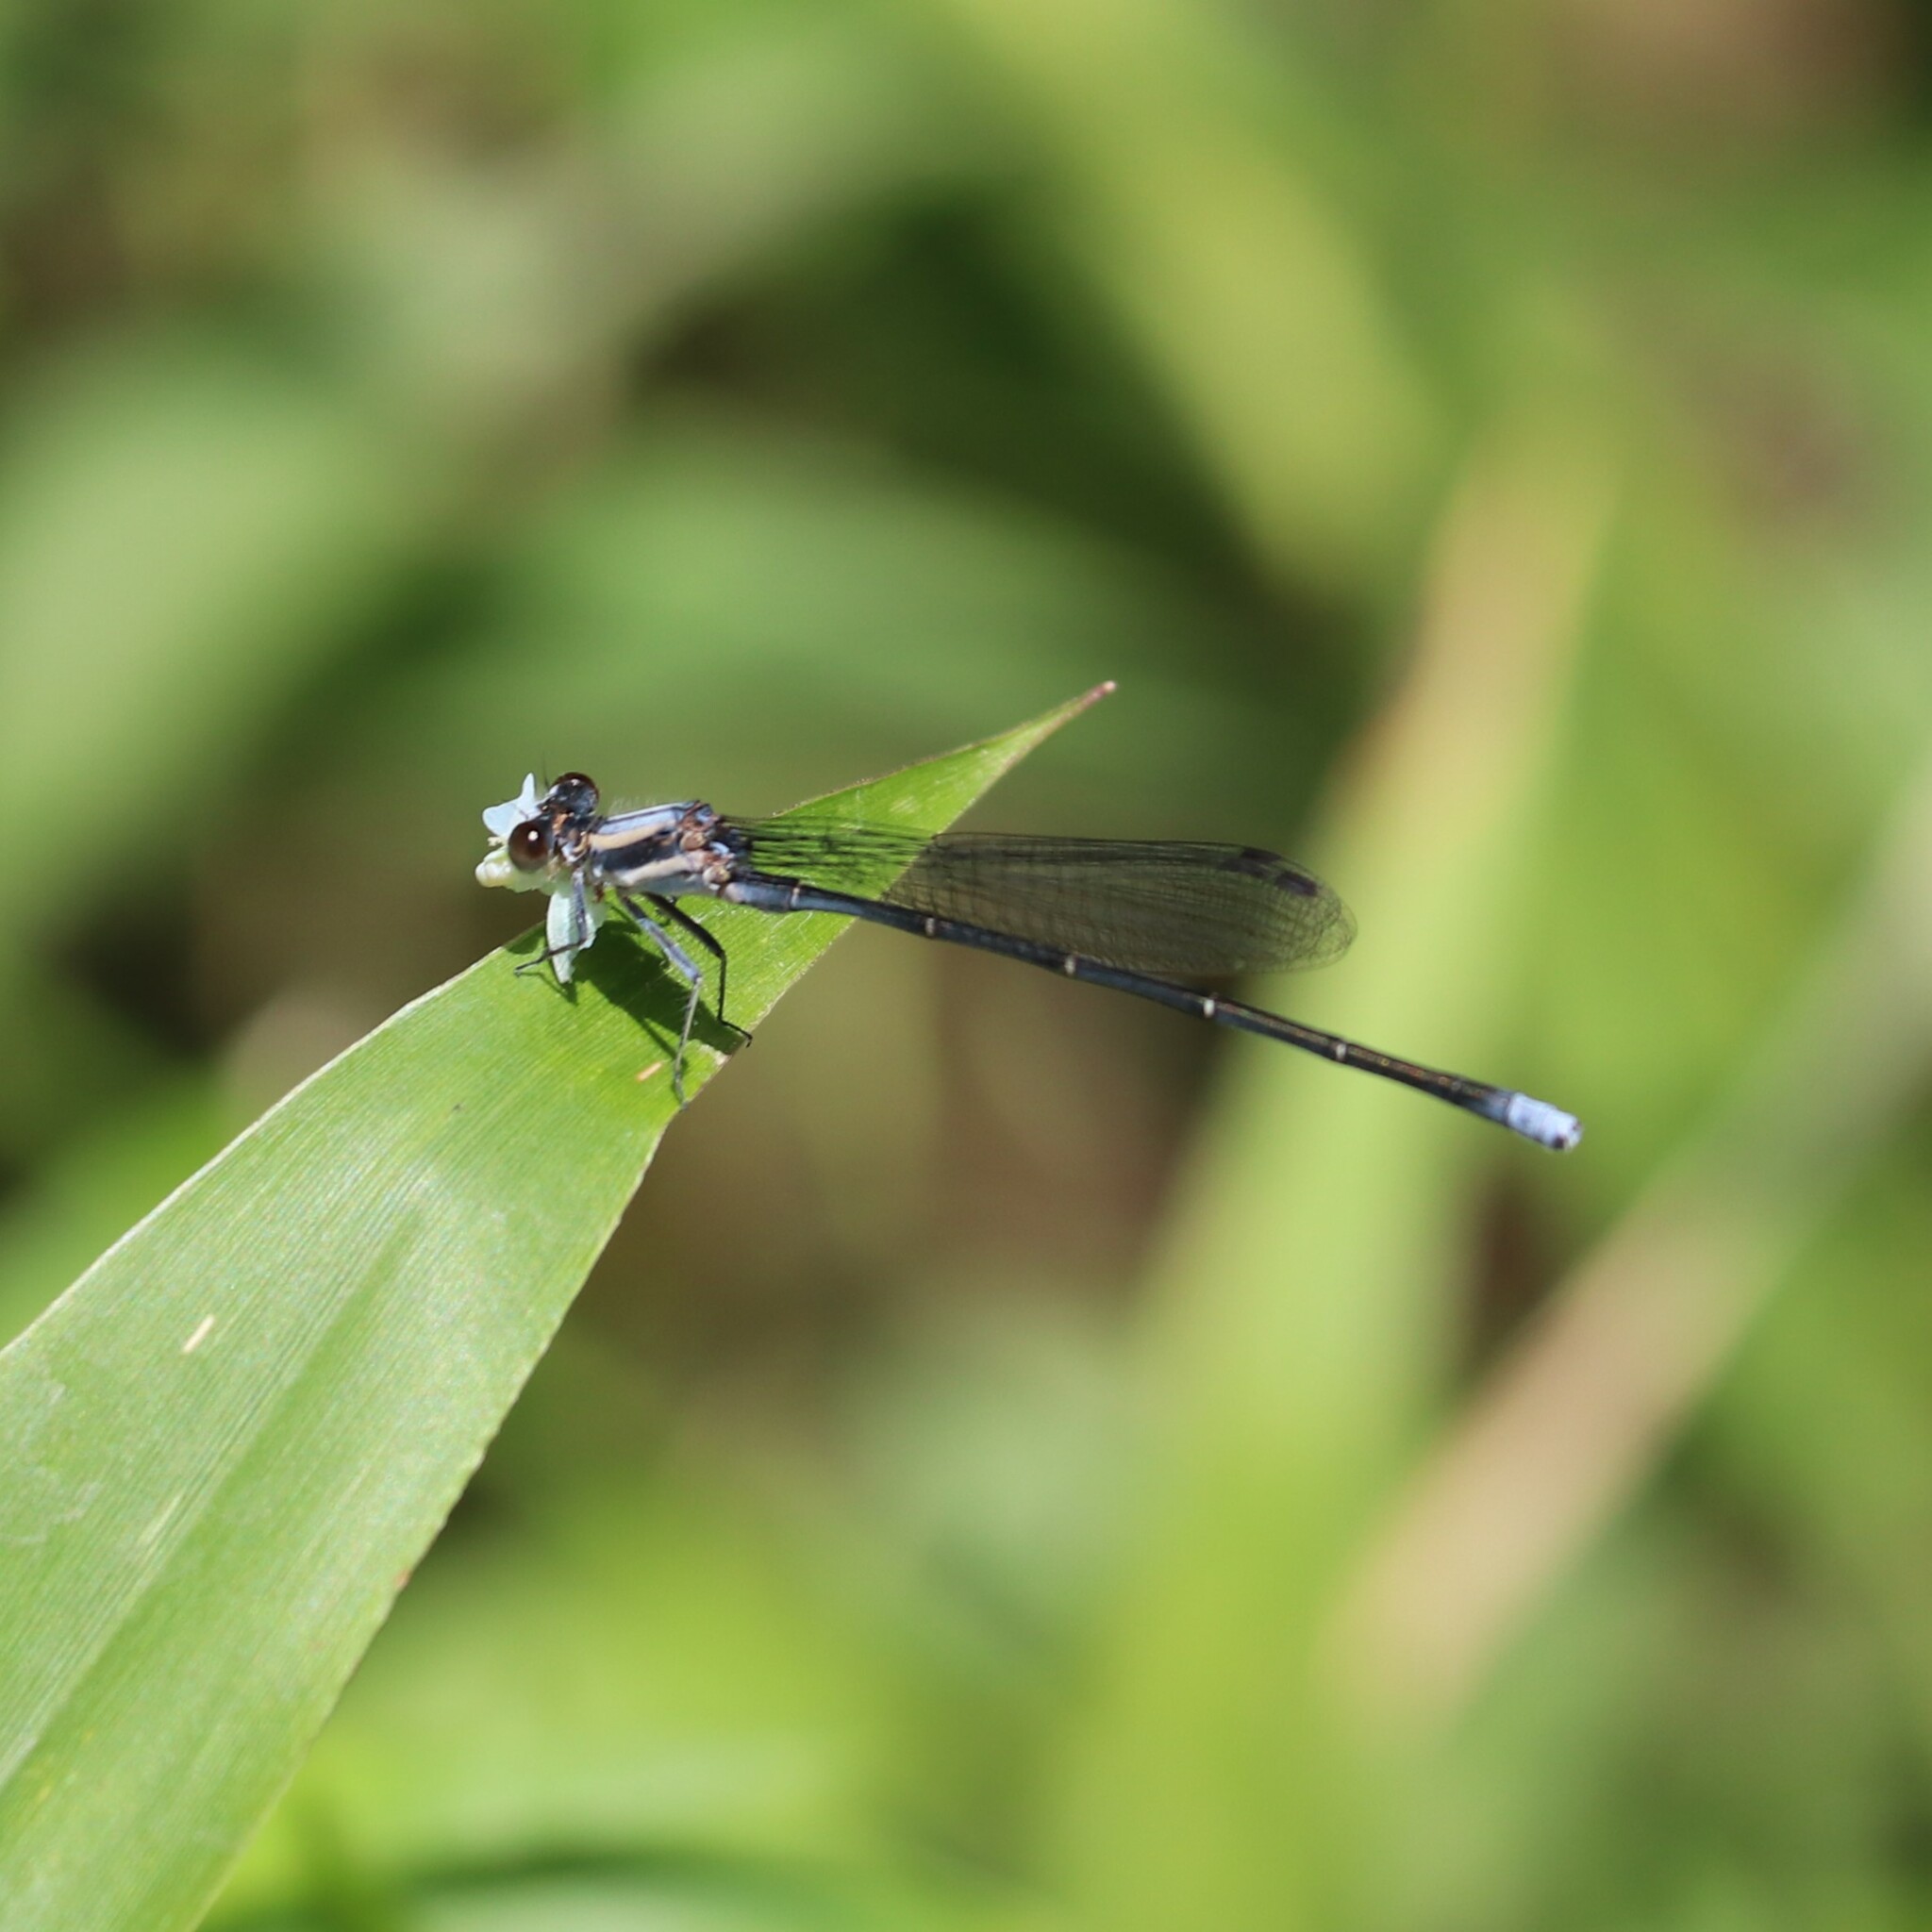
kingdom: Animalia
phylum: Arthropoda
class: Insecta
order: Odonata
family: Coenagrionidae
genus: Argia
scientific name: Argia moesta
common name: Powdered dancer
